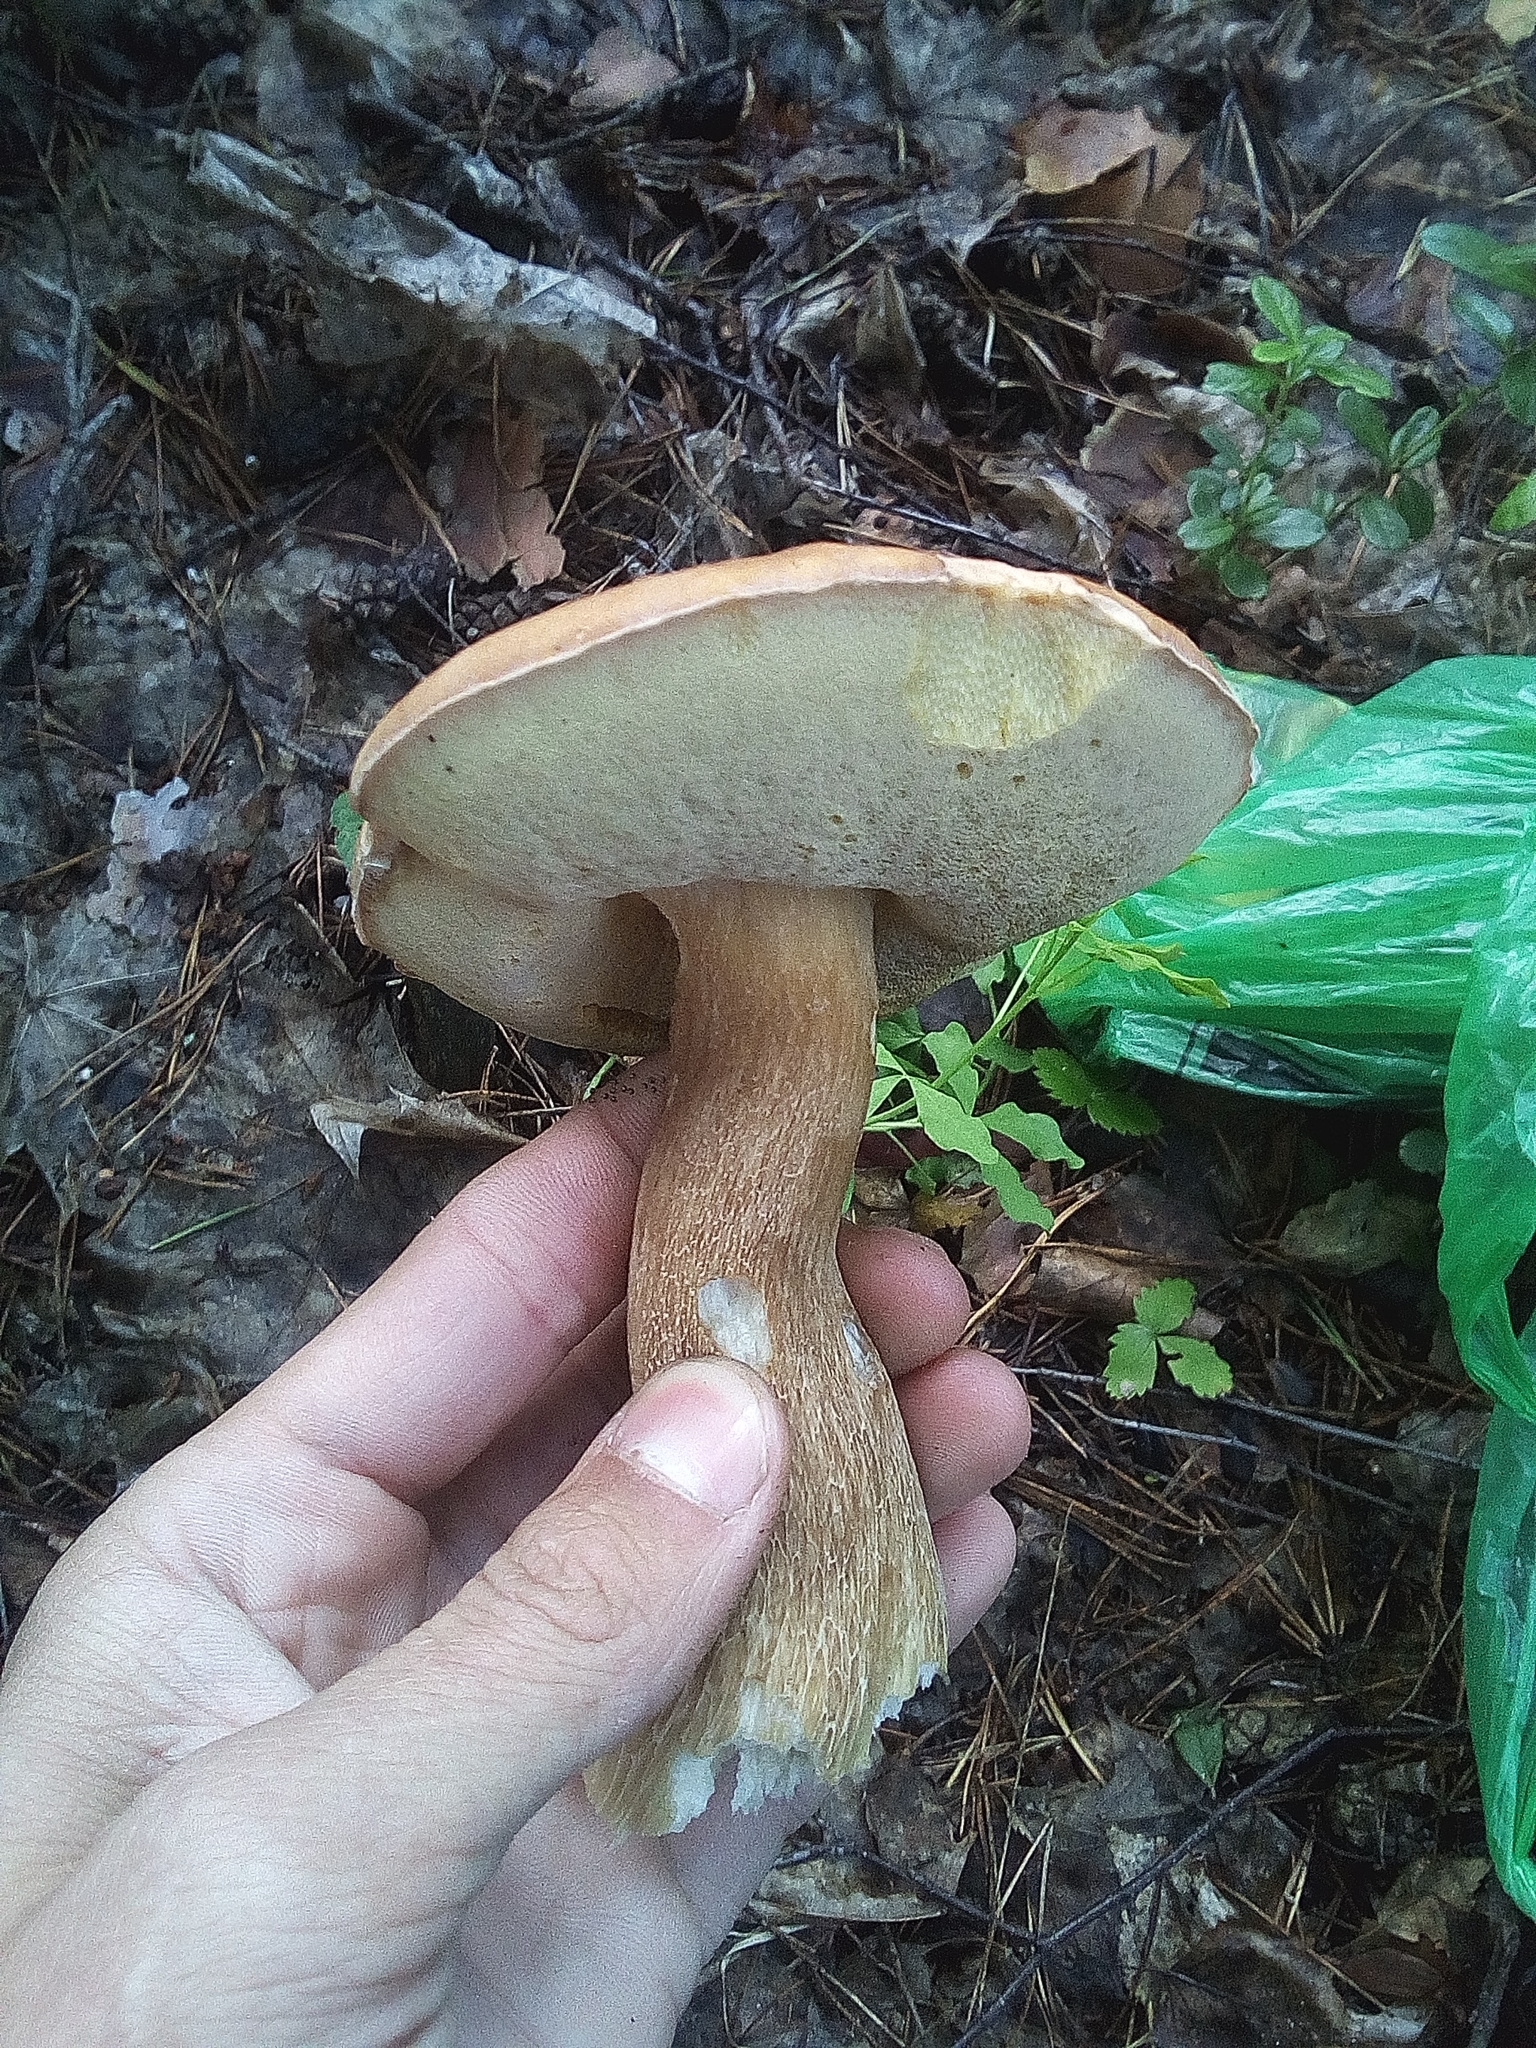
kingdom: Fungi
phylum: Basidiomycota
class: Agaricomycetes
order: Boletales
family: Boletaceae
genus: Boletus
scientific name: Boletus edulis
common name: Cep
